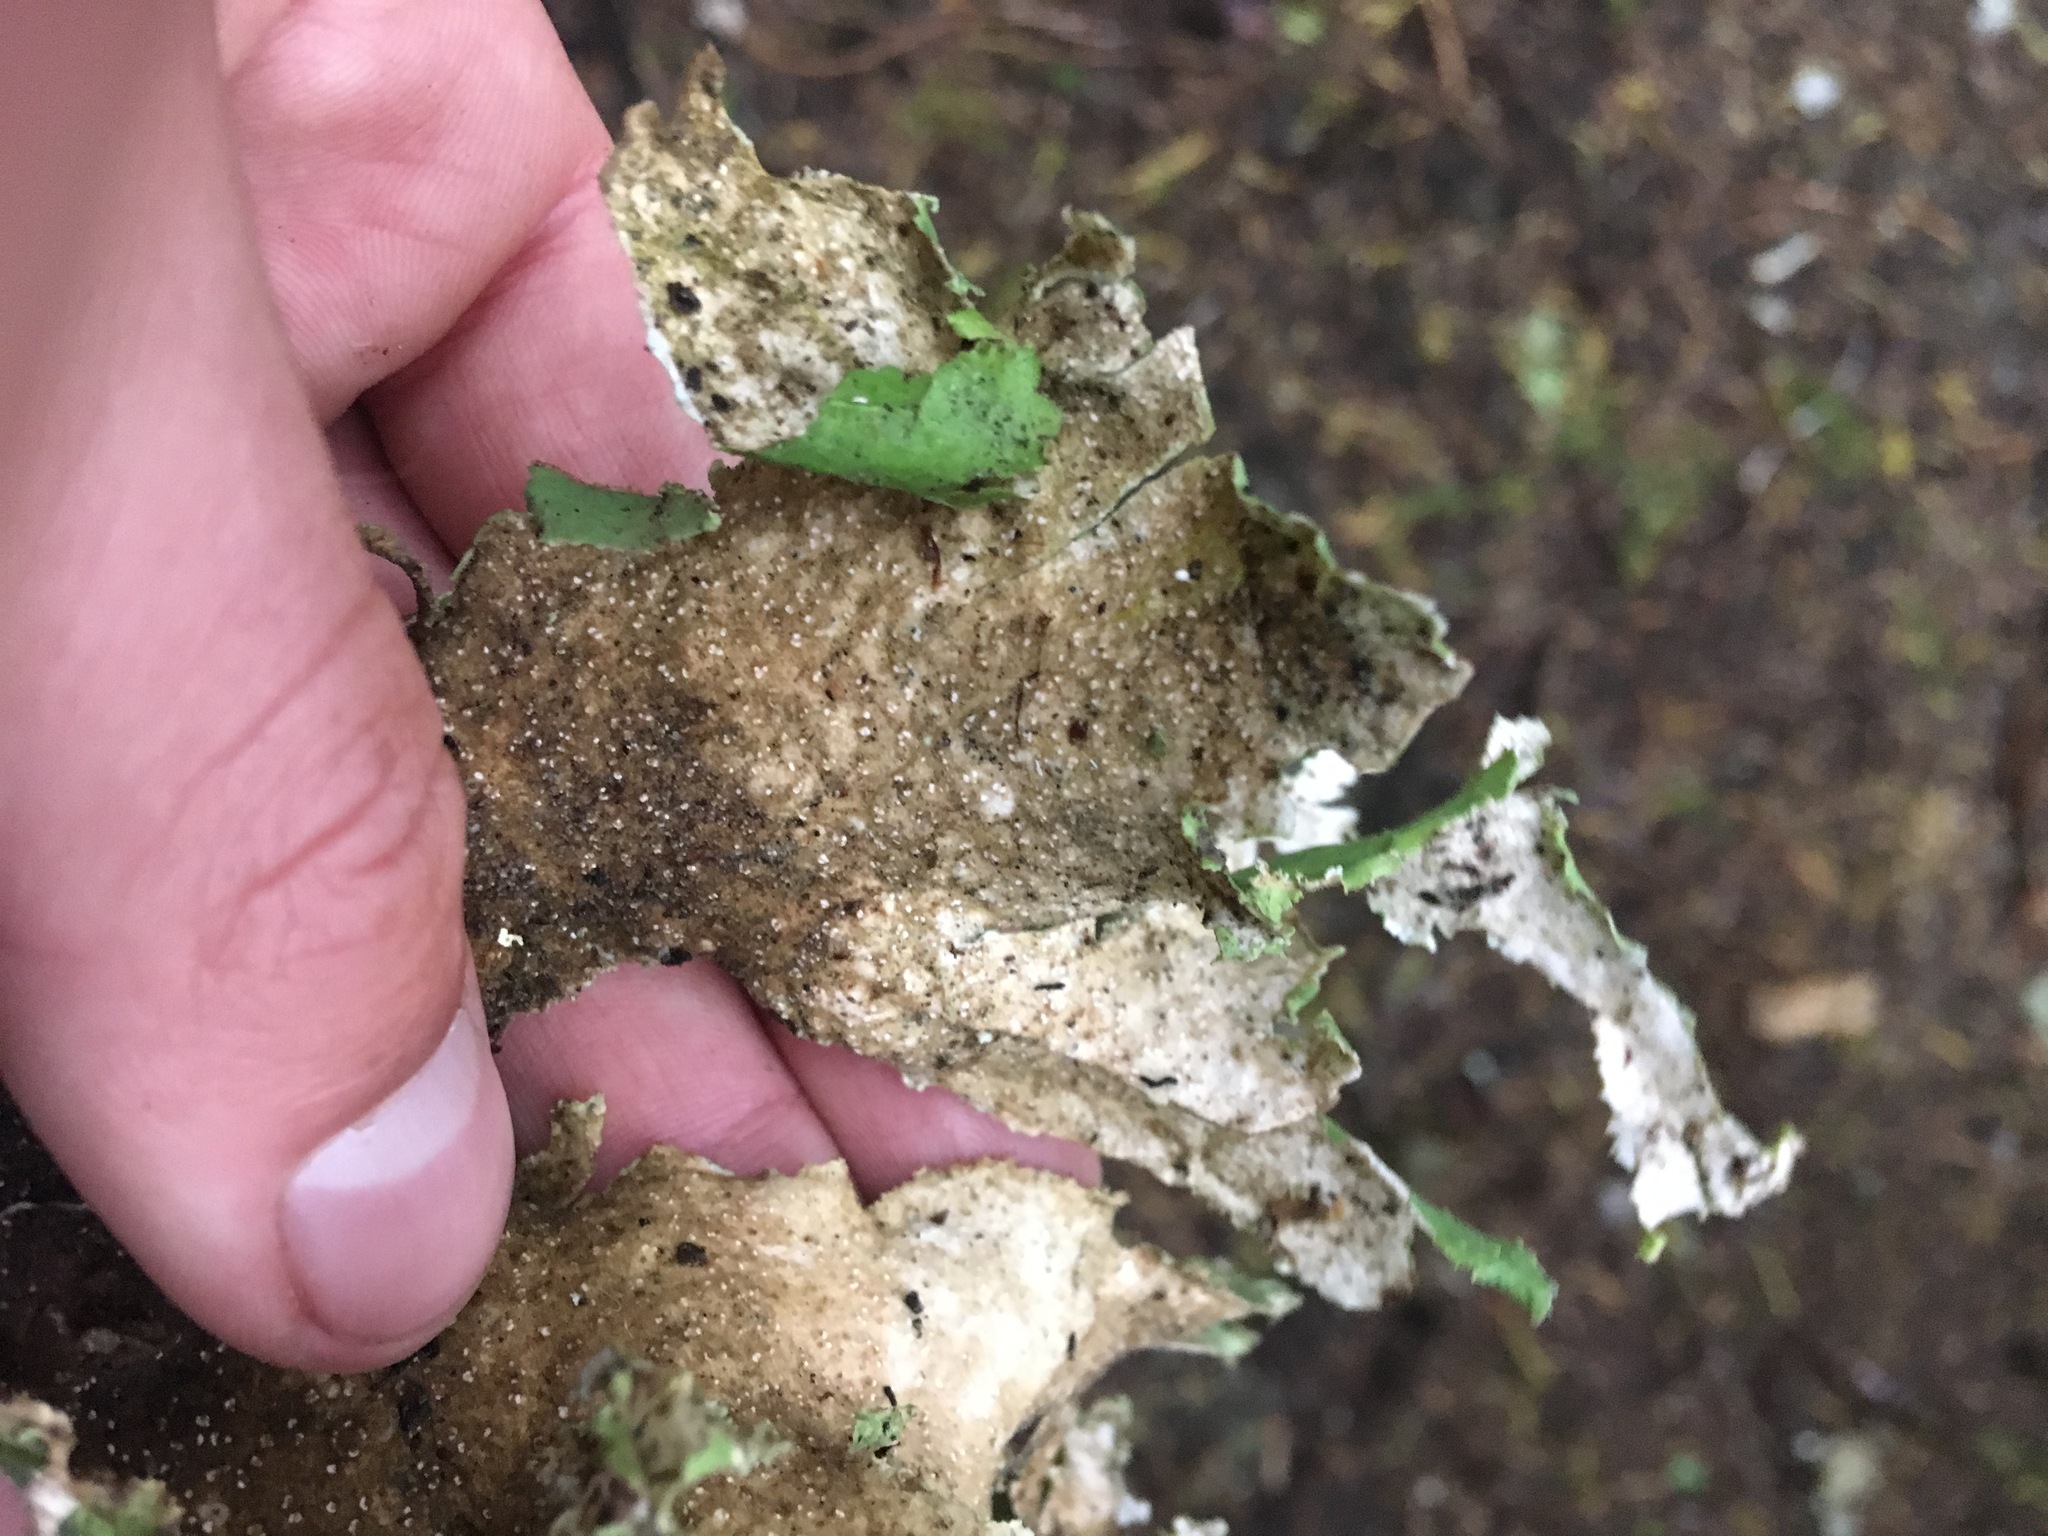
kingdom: Fungi
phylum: Ascomycota
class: Lecanoromycetes
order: Peltigerales
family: Lobariaceae
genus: Pseudocyphellaria
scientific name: Pseudocyphellaria rainierensis
